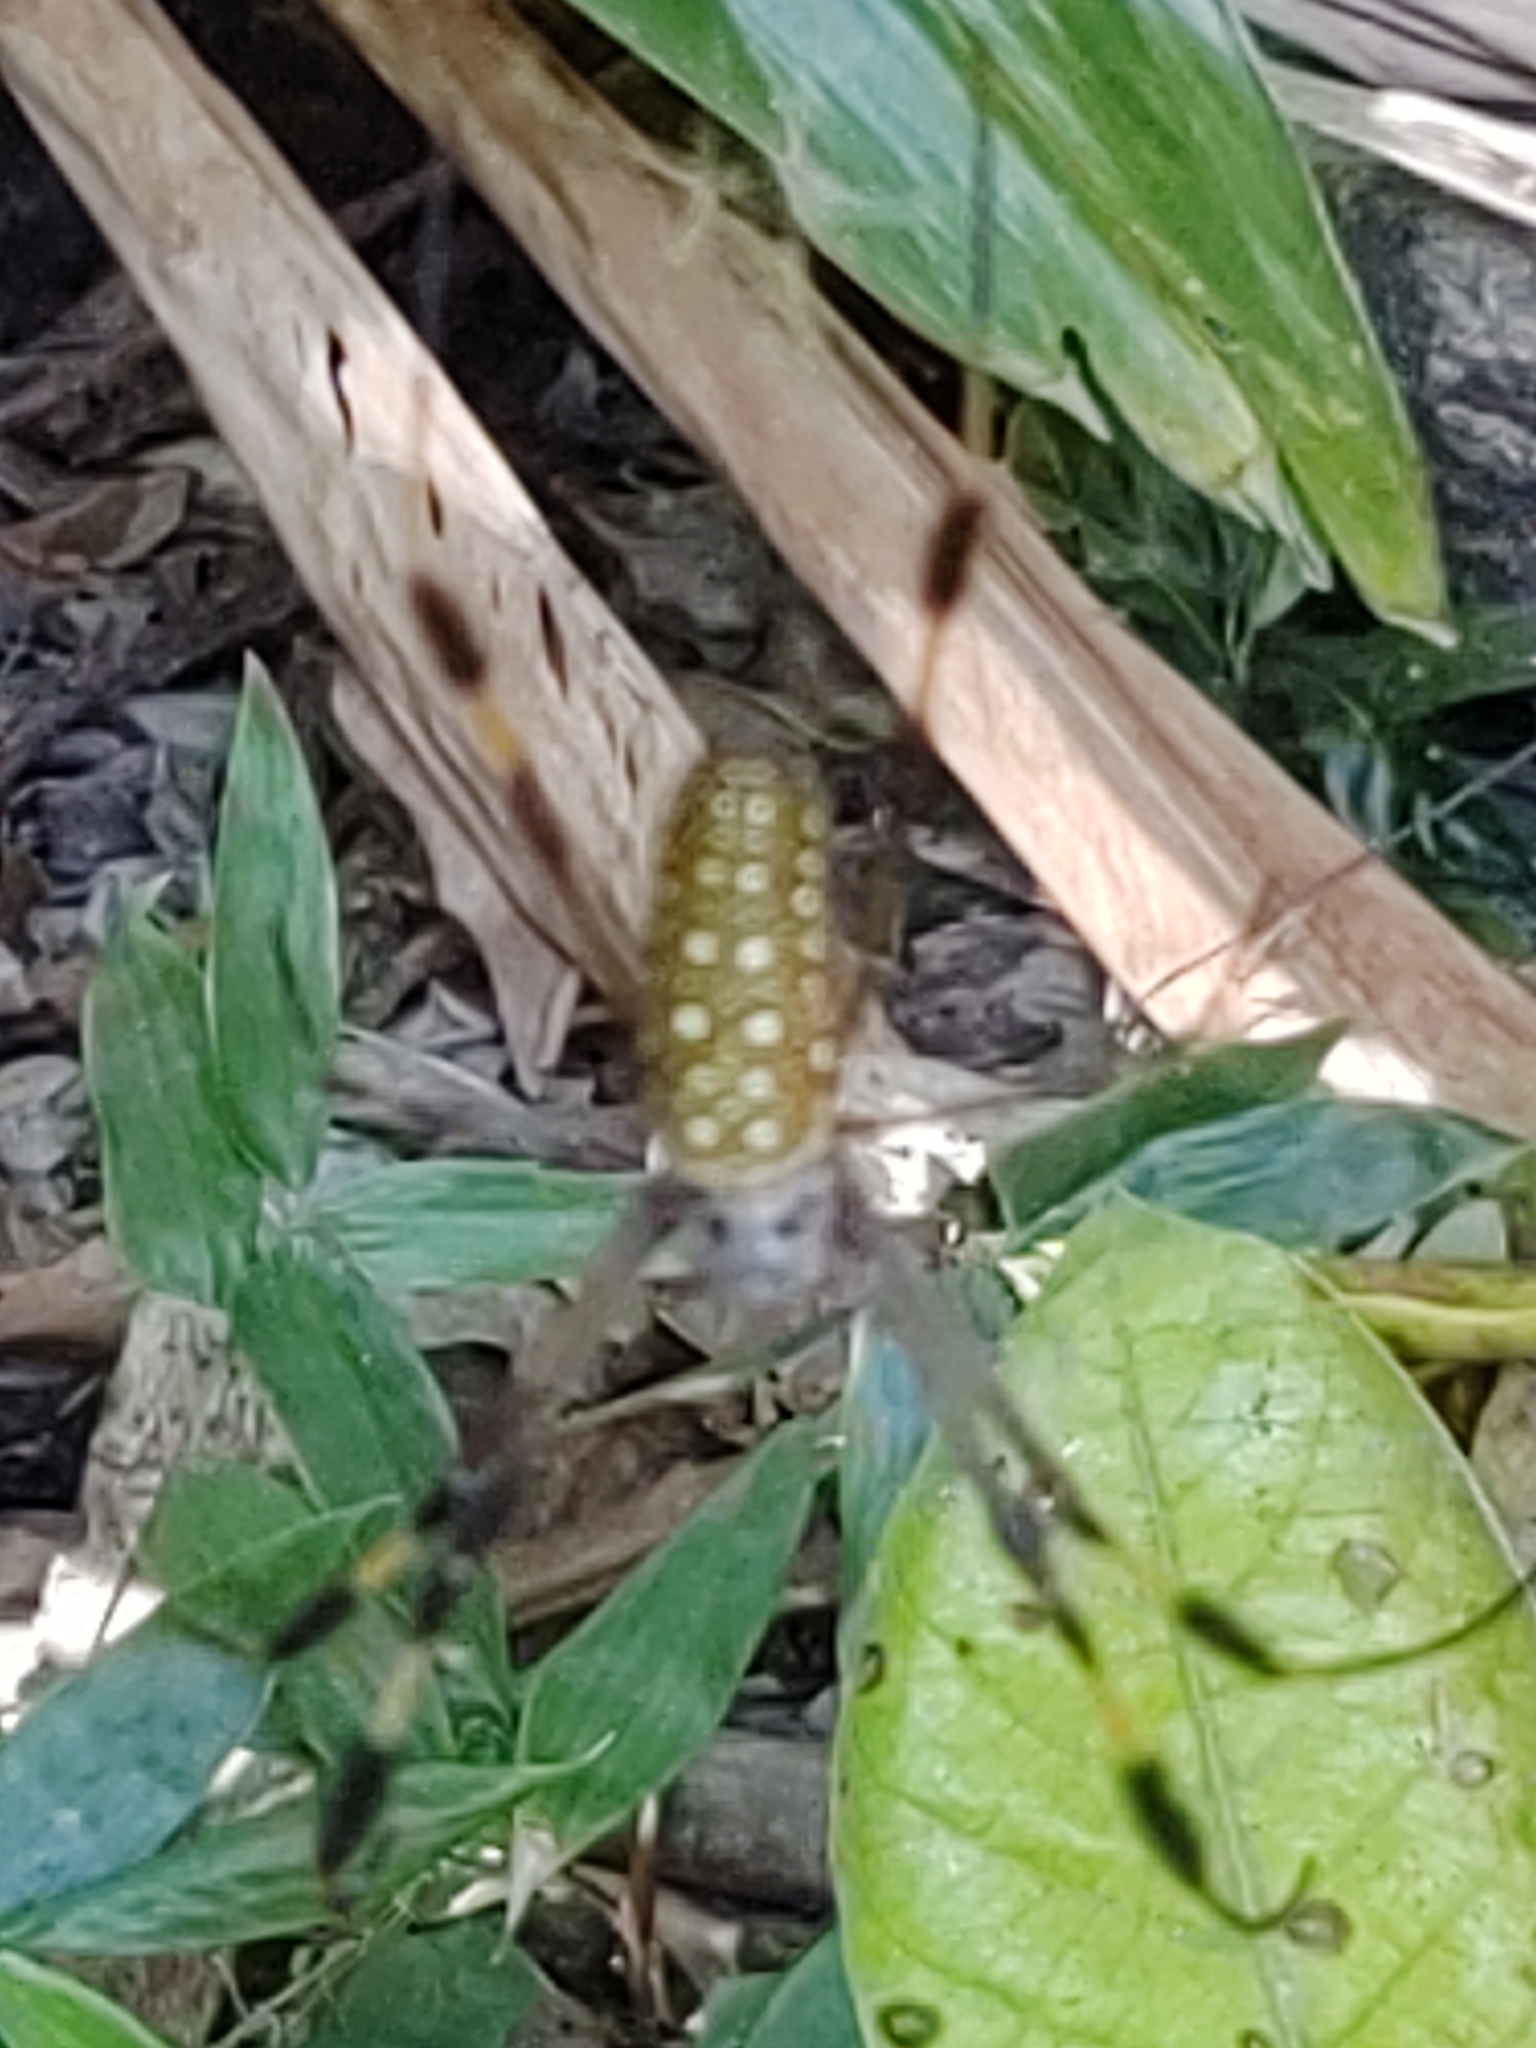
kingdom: Animalia
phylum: Arthropoda
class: Arachnida
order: Araneae
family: Araneidae
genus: Trichonephila
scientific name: Trichonephila clavipes
